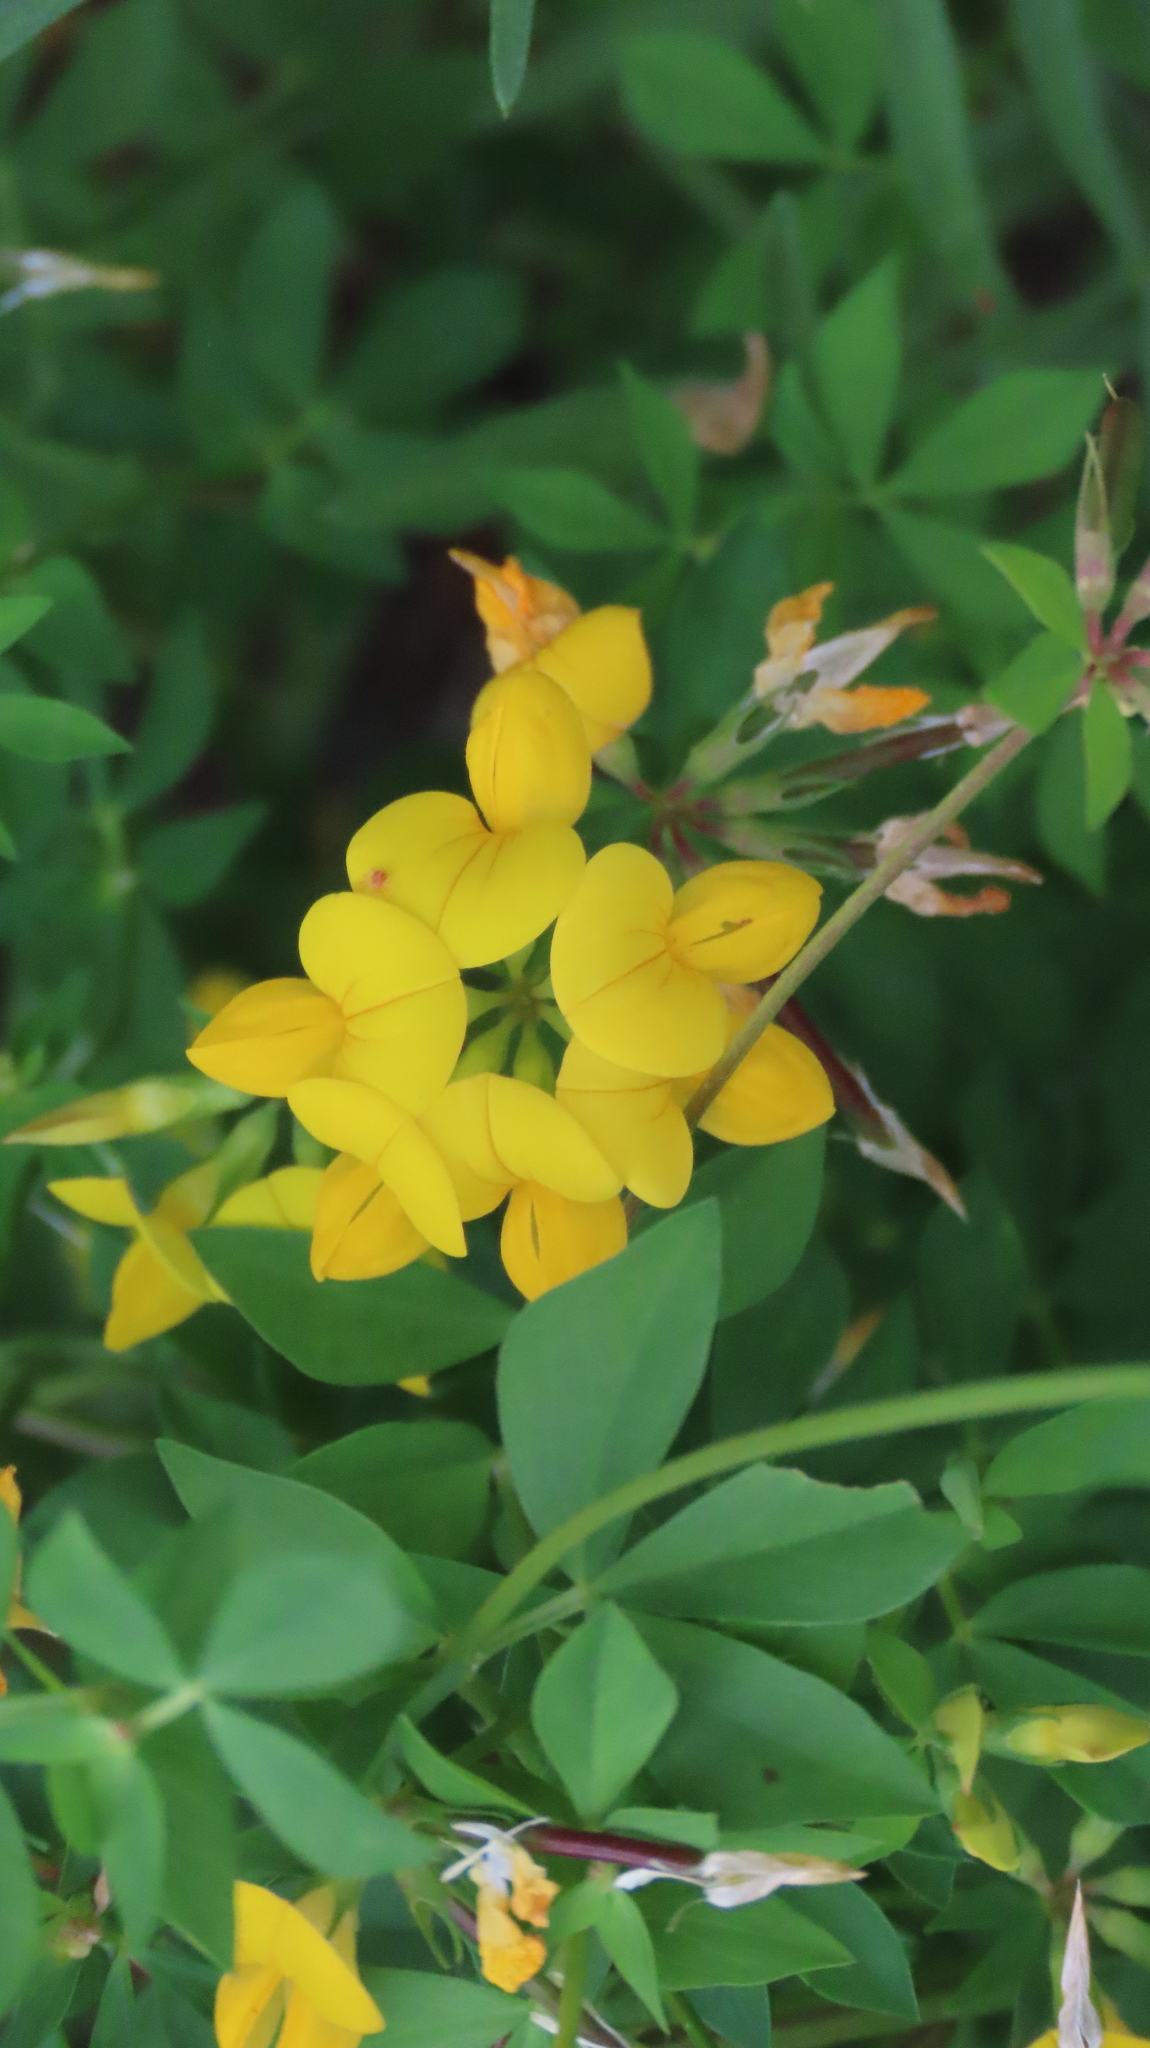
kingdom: Plantae
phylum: Tracheophyta
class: Magnoliopsida
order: Fabales
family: Fabaceae
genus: Lotus
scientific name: Lotus corniculatus
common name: Common bird's-foot-trefoil
